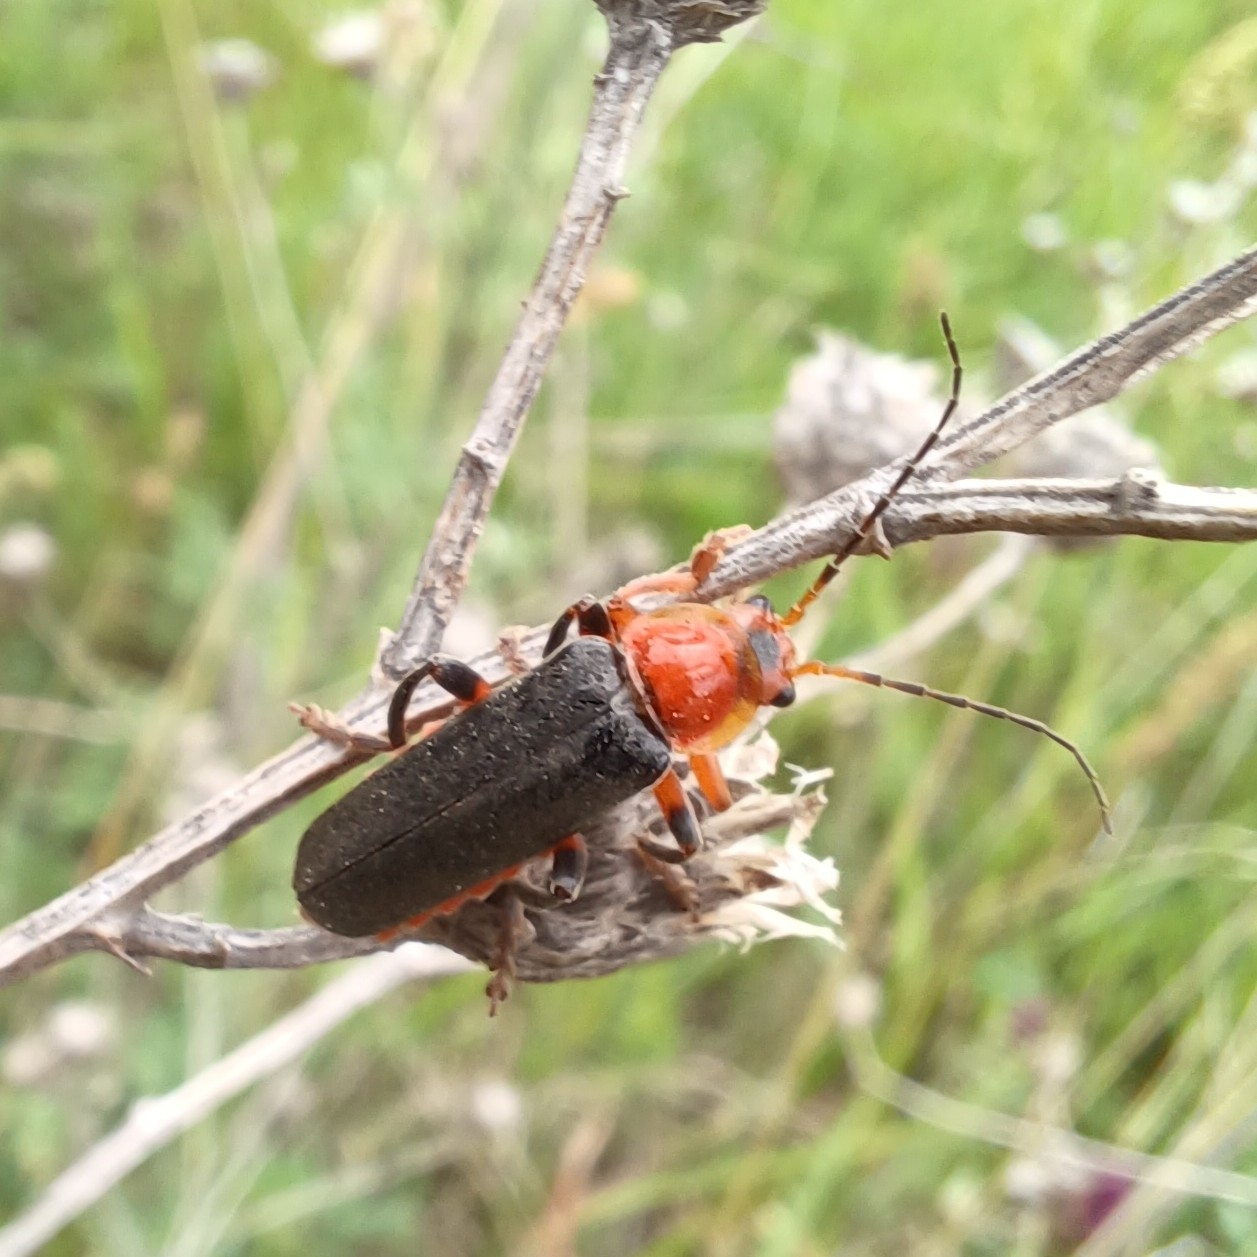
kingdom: Animalia
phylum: Arthropoda
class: Insecta
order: Coleoptera
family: Cantharidae
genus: Cantharis
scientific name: Cantharis livida
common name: Livid soldier beetle
